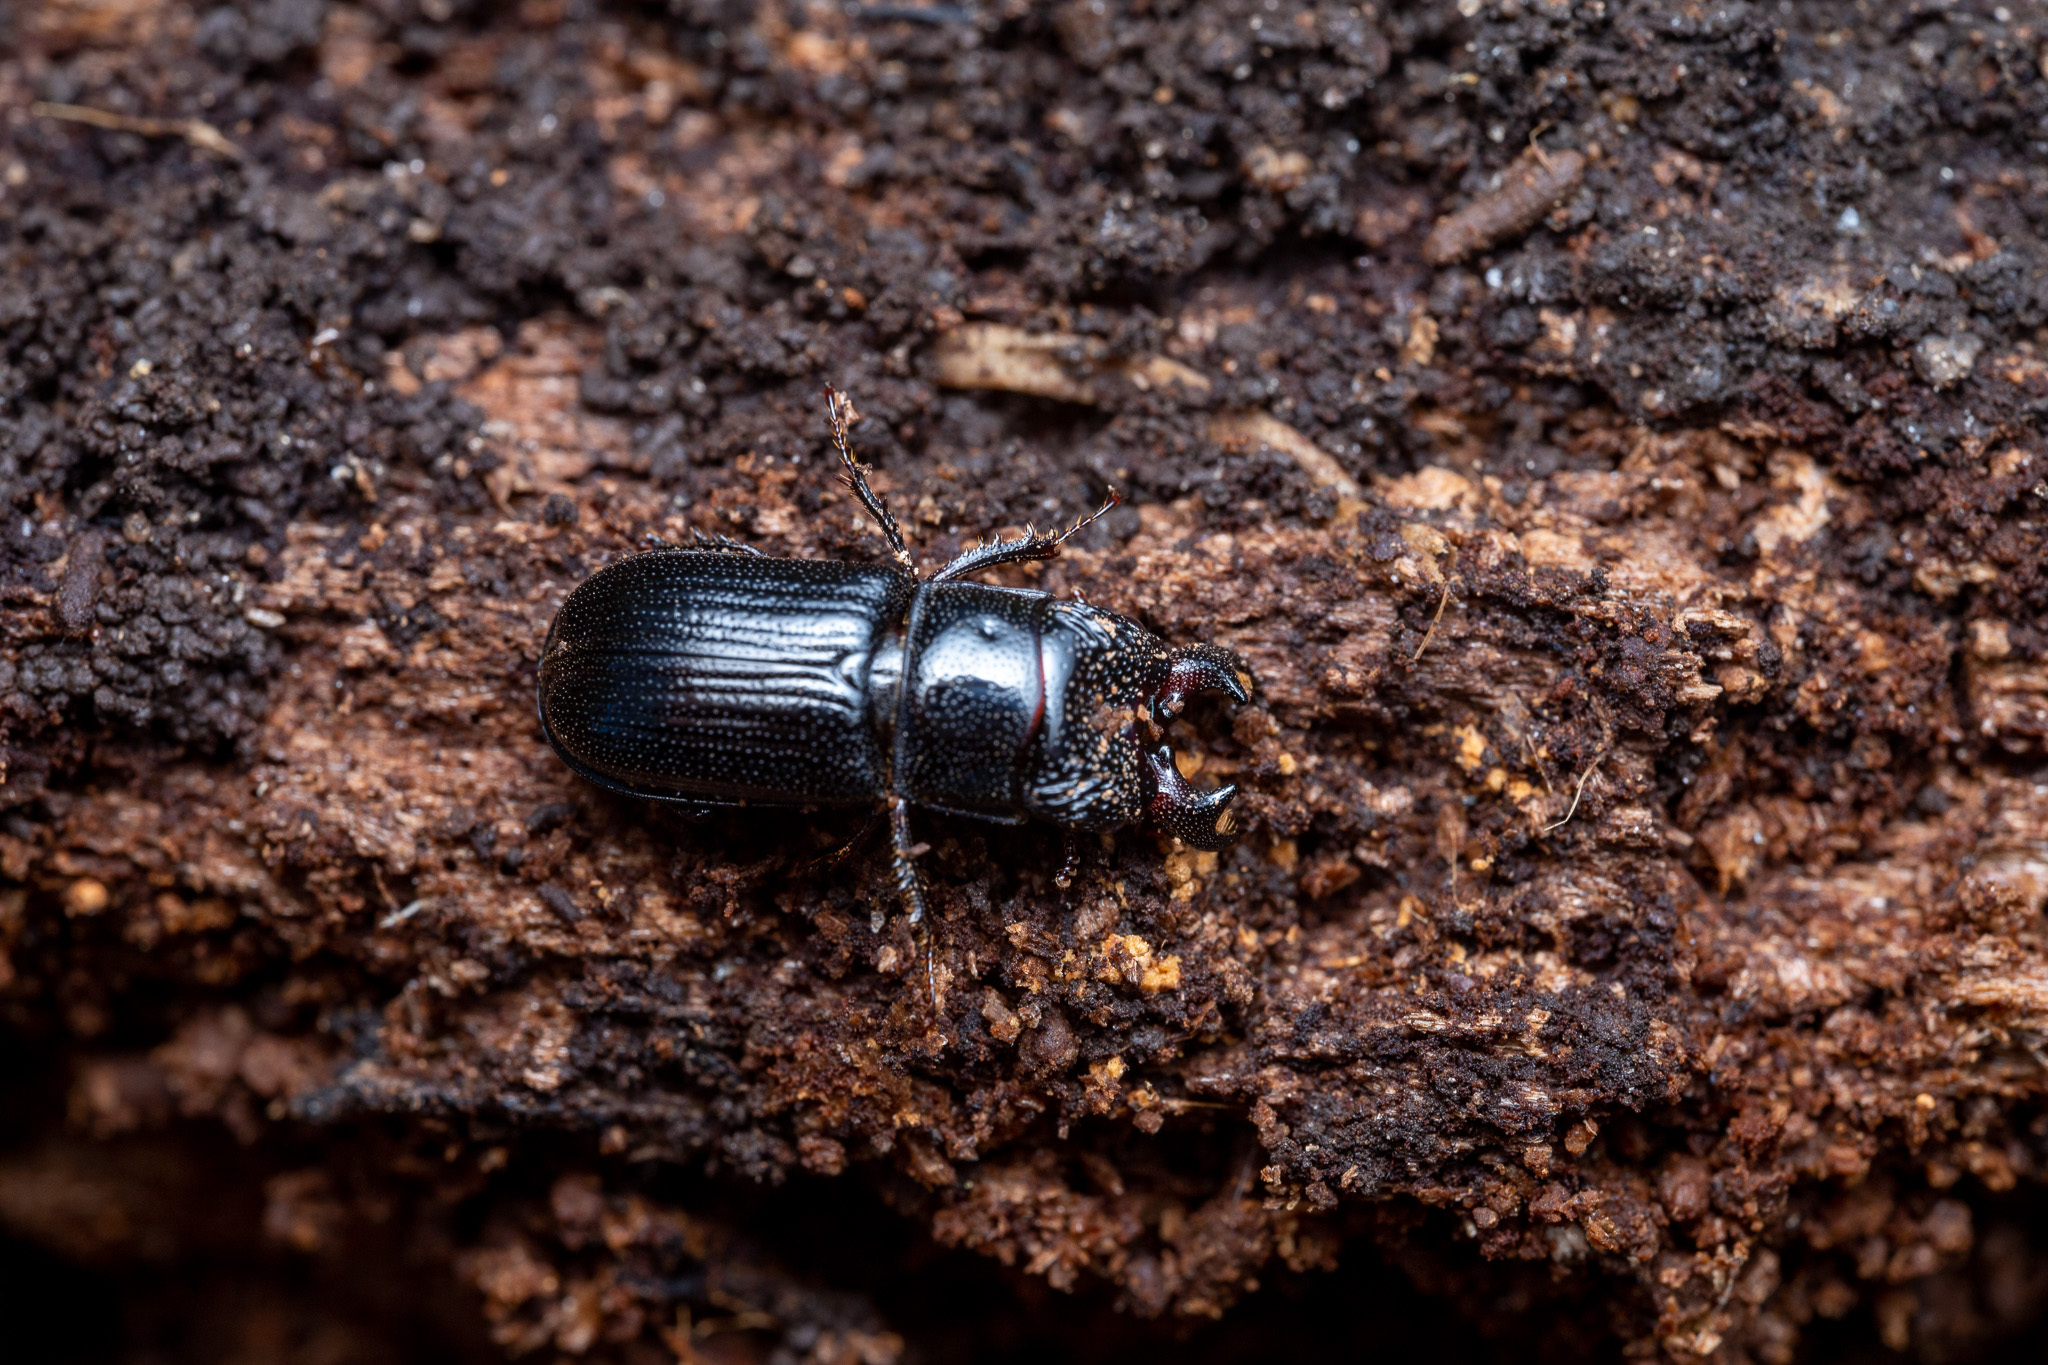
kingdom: Animalia
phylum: Arthropoda
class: Insecta
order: Coleoptera
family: Lucanidae
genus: Ceruchus
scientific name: Ceruchus piceus
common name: Red-rot decay stag beetle
